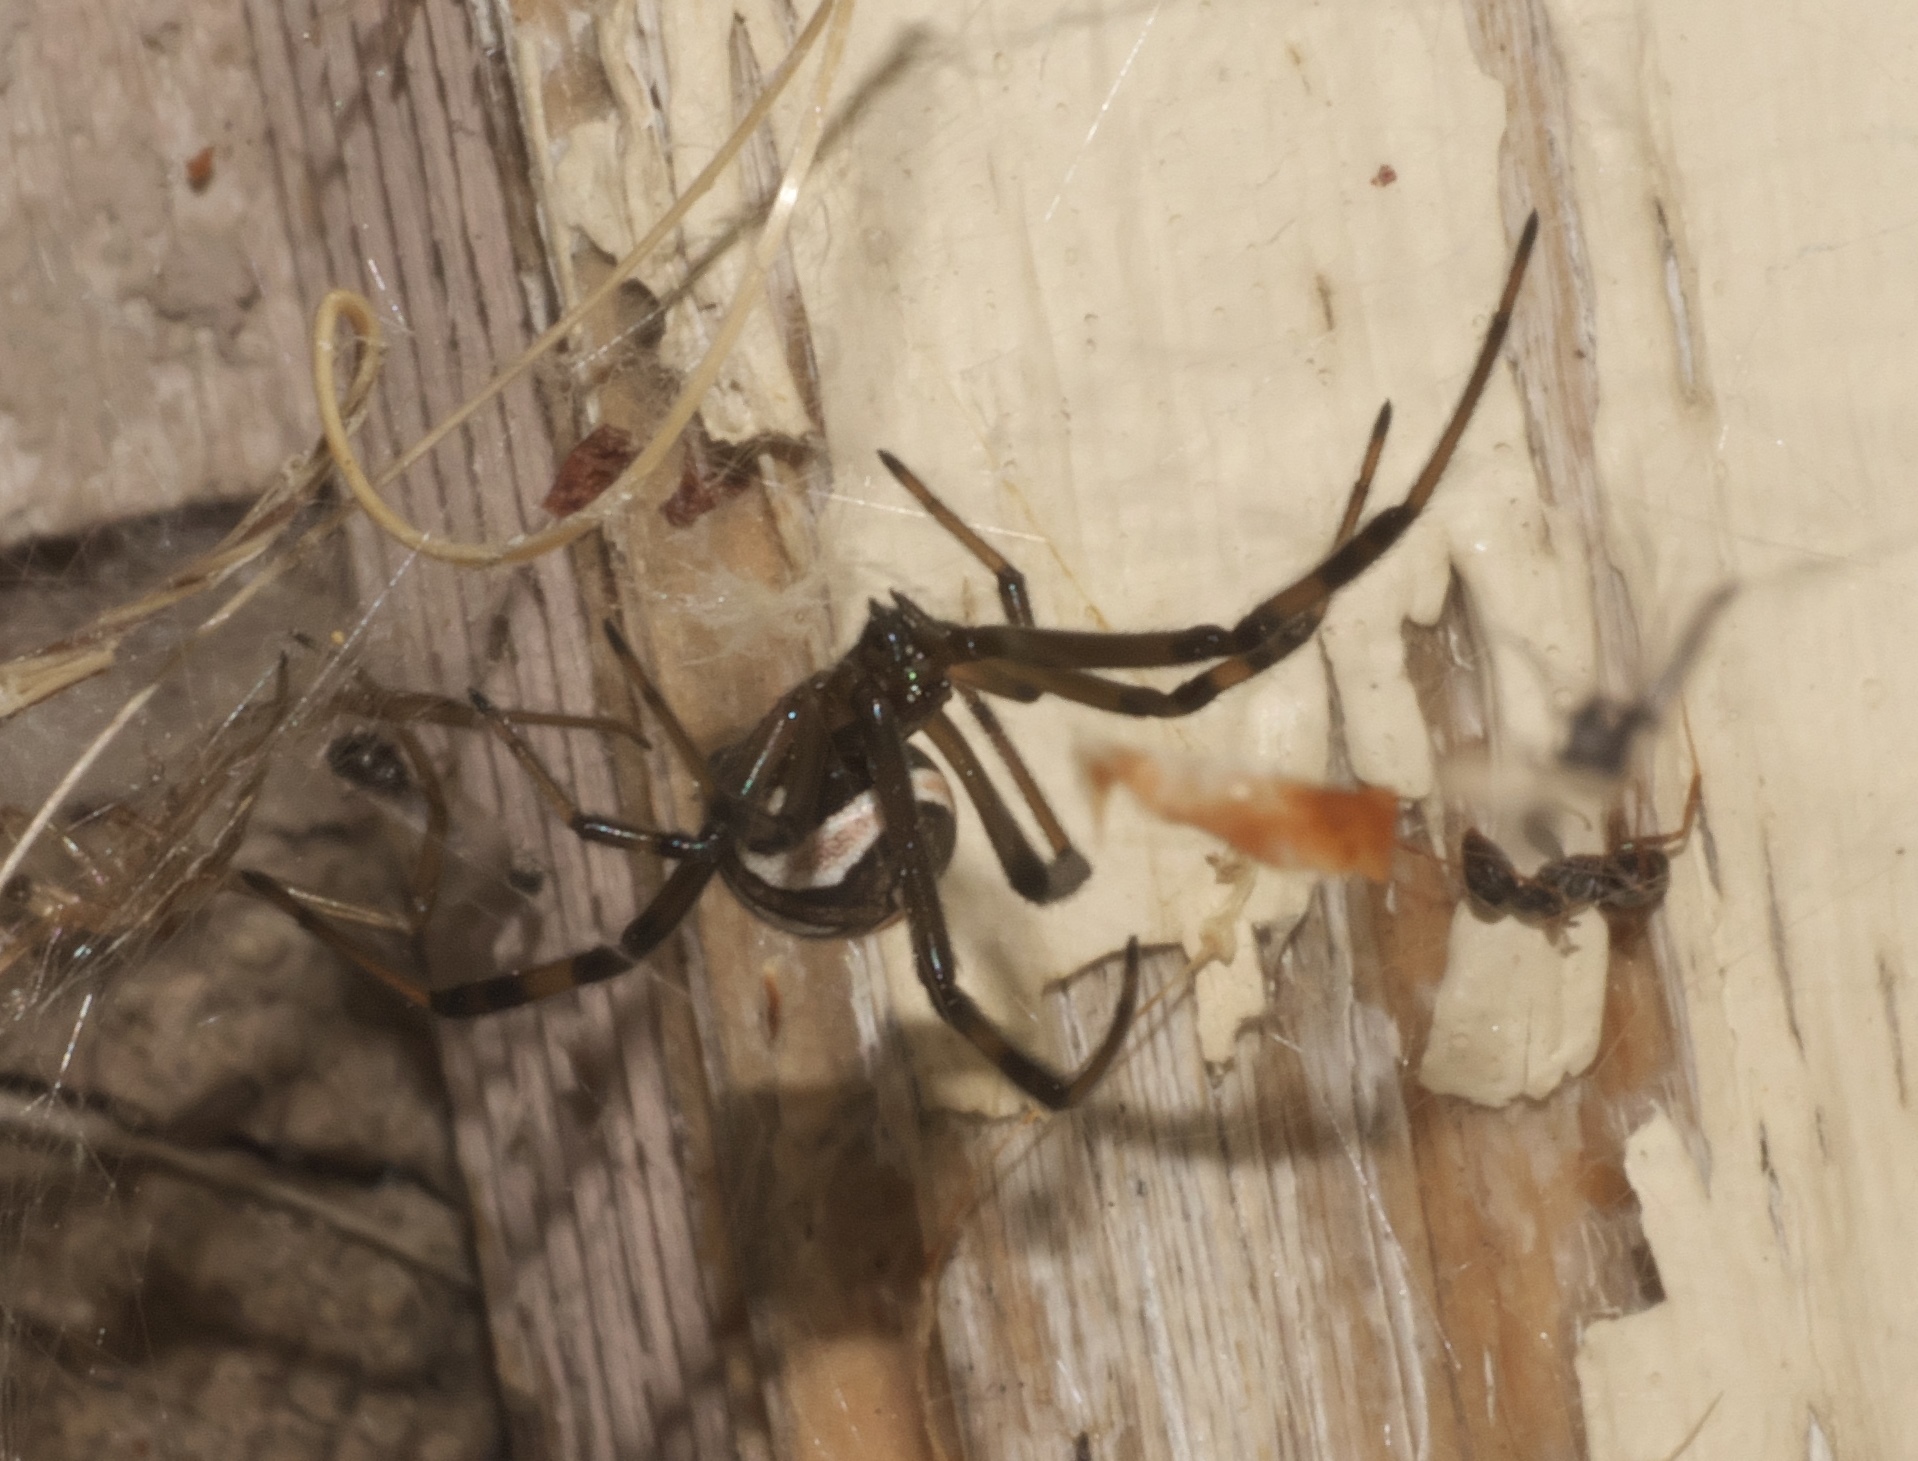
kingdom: Animalia
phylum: Arthropoda
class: Arachnida
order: Araneae
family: Theridiidae
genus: Latrodectus
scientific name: Latrodectus hesperus
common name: Western black widow
